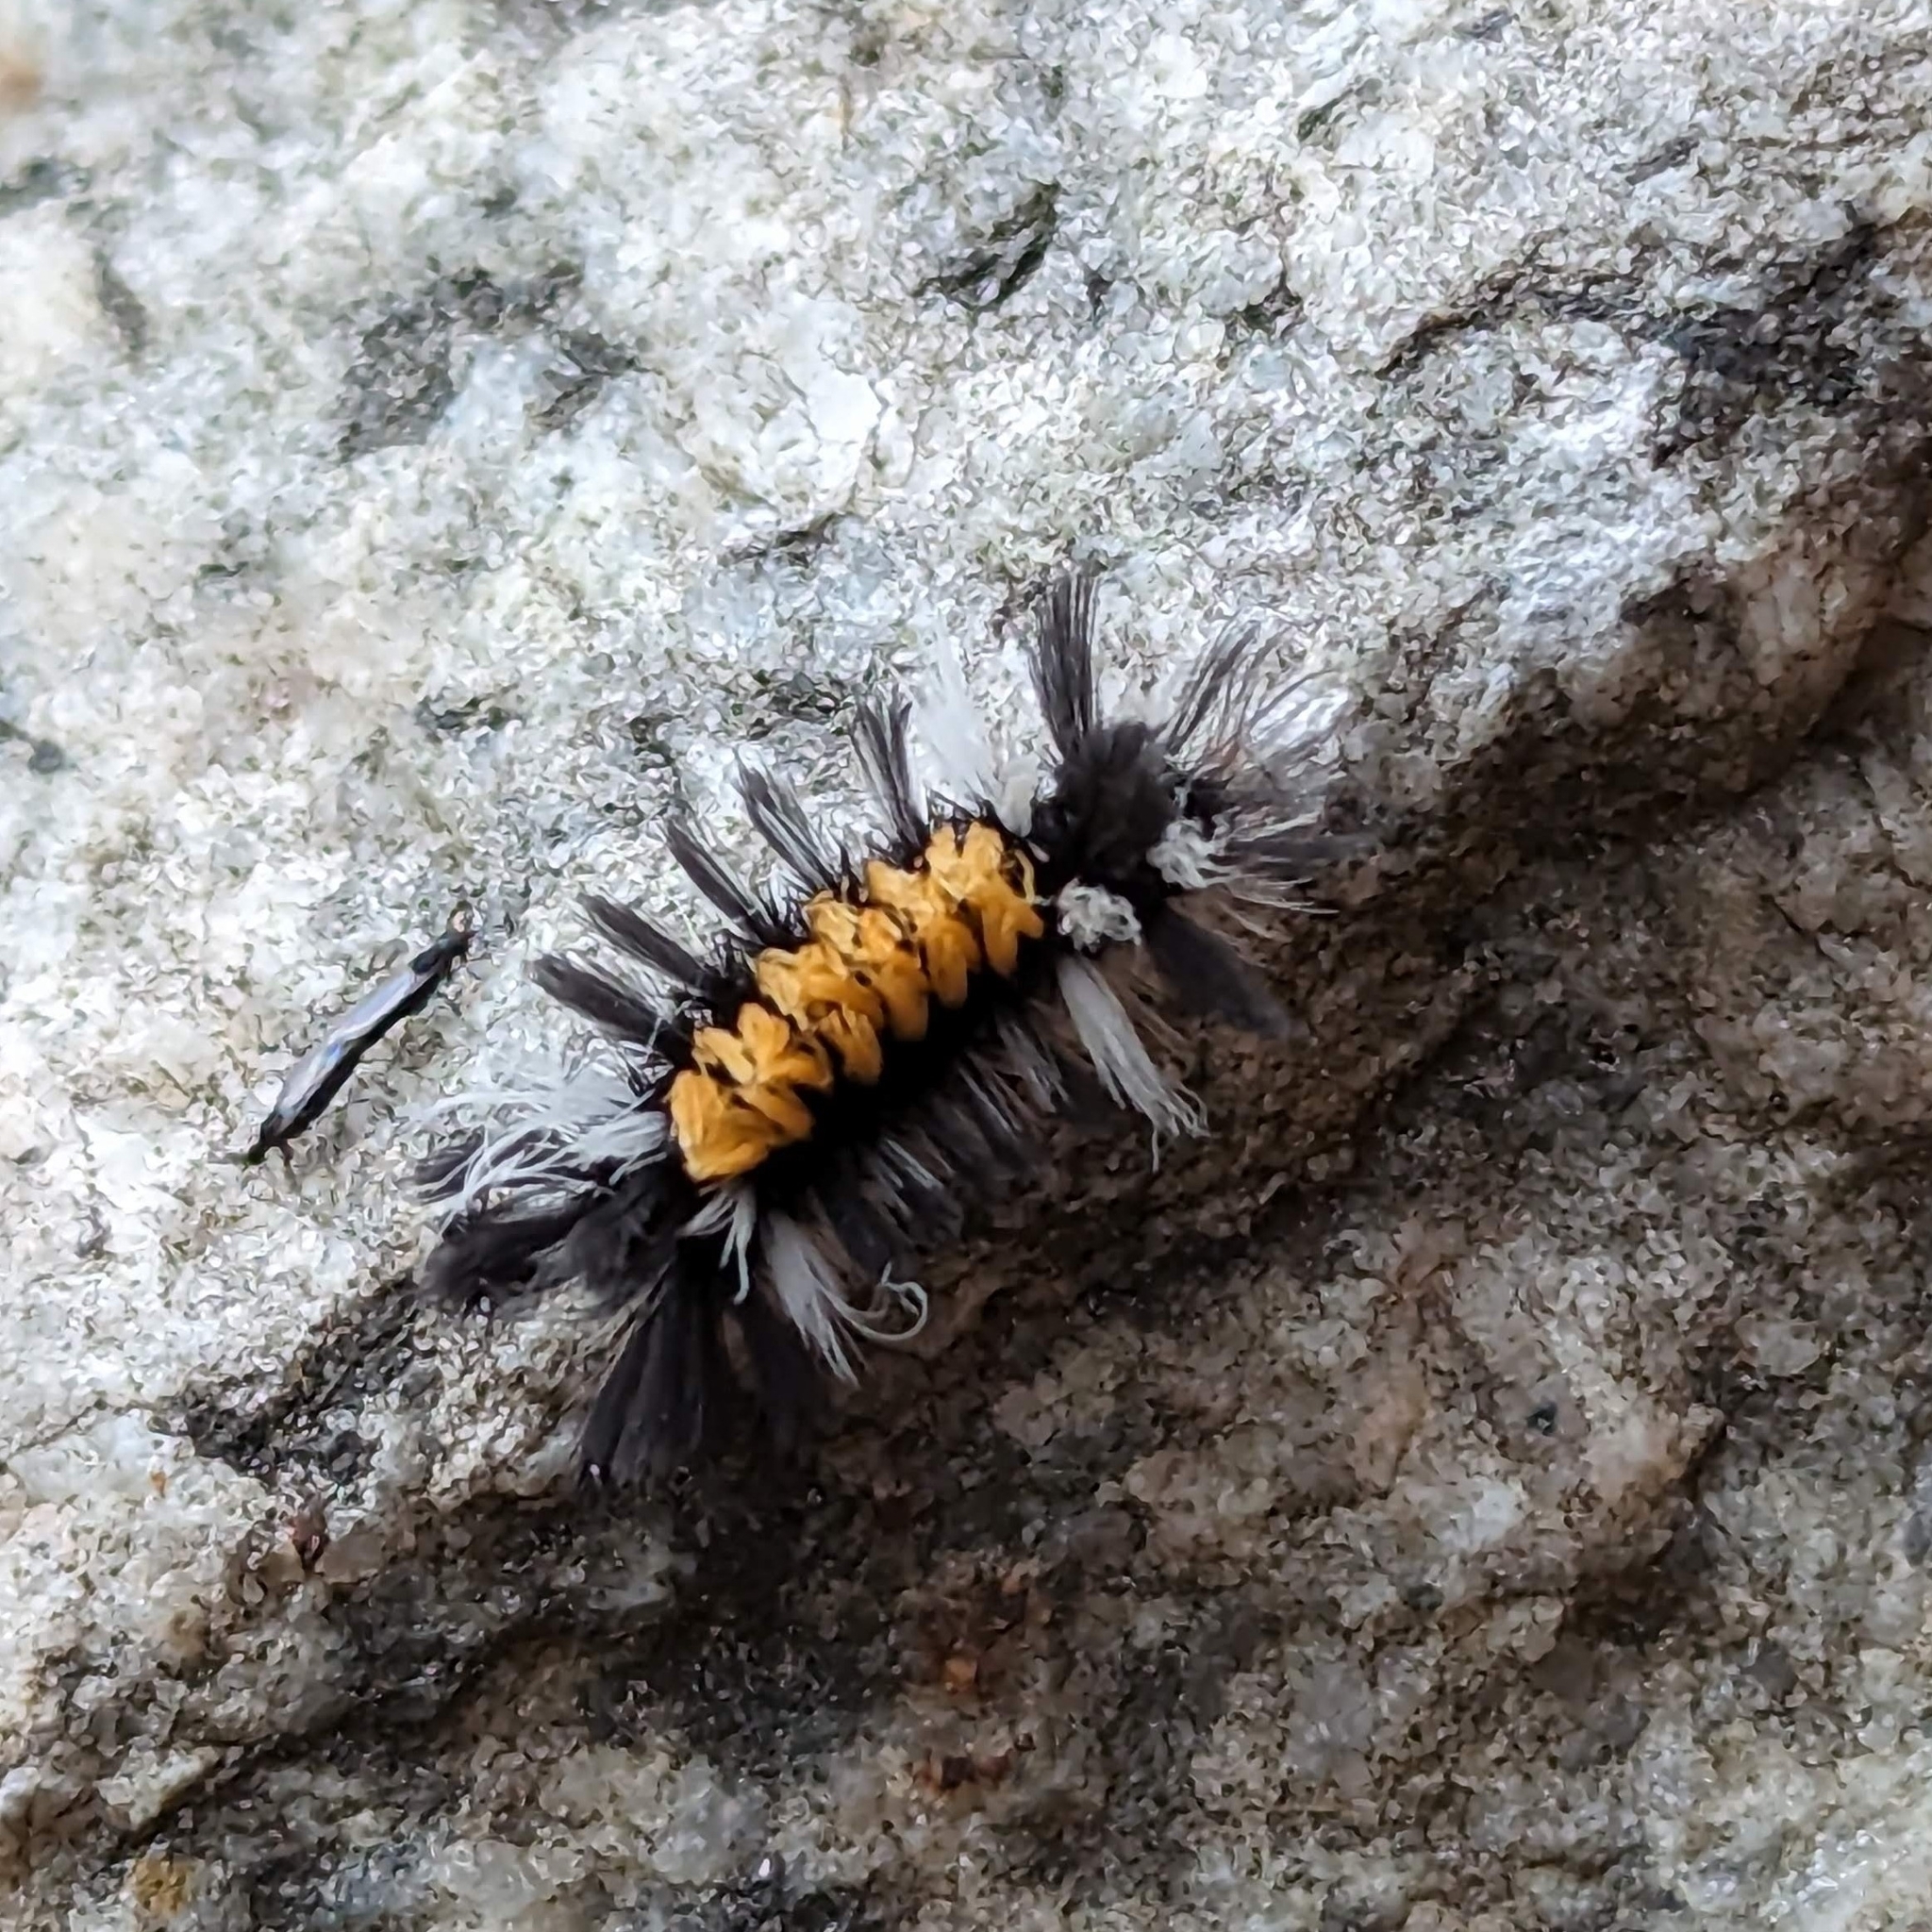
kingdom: Animalia
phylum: Arthropoda
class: Insecta
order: Lepidoptera
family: Erebidae
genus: Euchaetes
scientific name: Euchaetes egle
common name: Milkweed tussock moth
